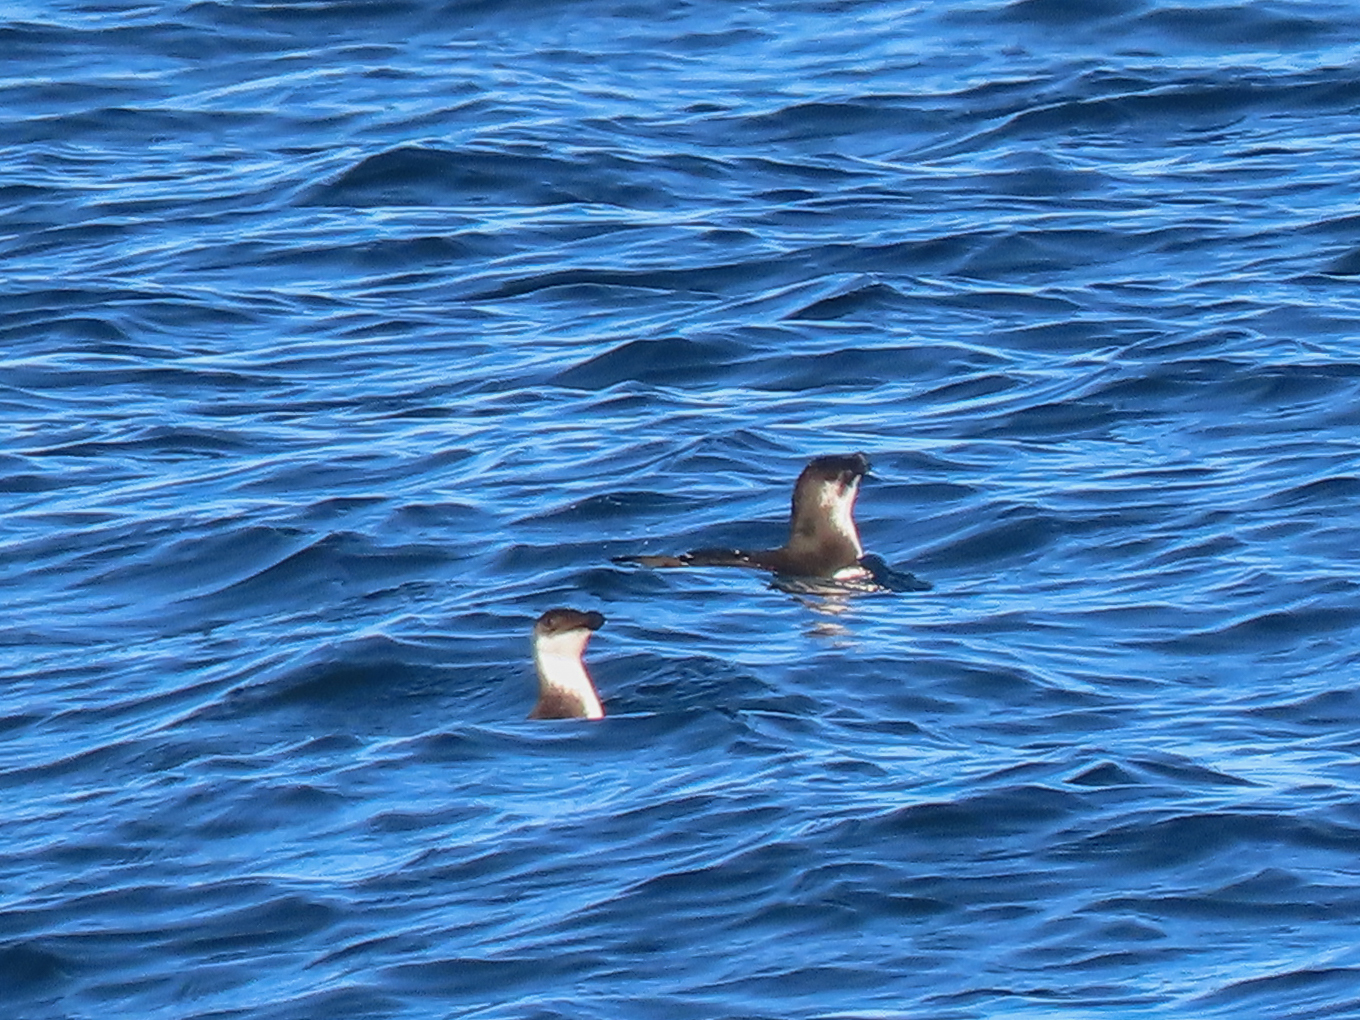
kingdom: Animalia
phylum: Chordata
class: Aves
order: Charadriiformes
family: Alcidae
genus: Alca
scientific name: Alca torda
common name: Razorbill
